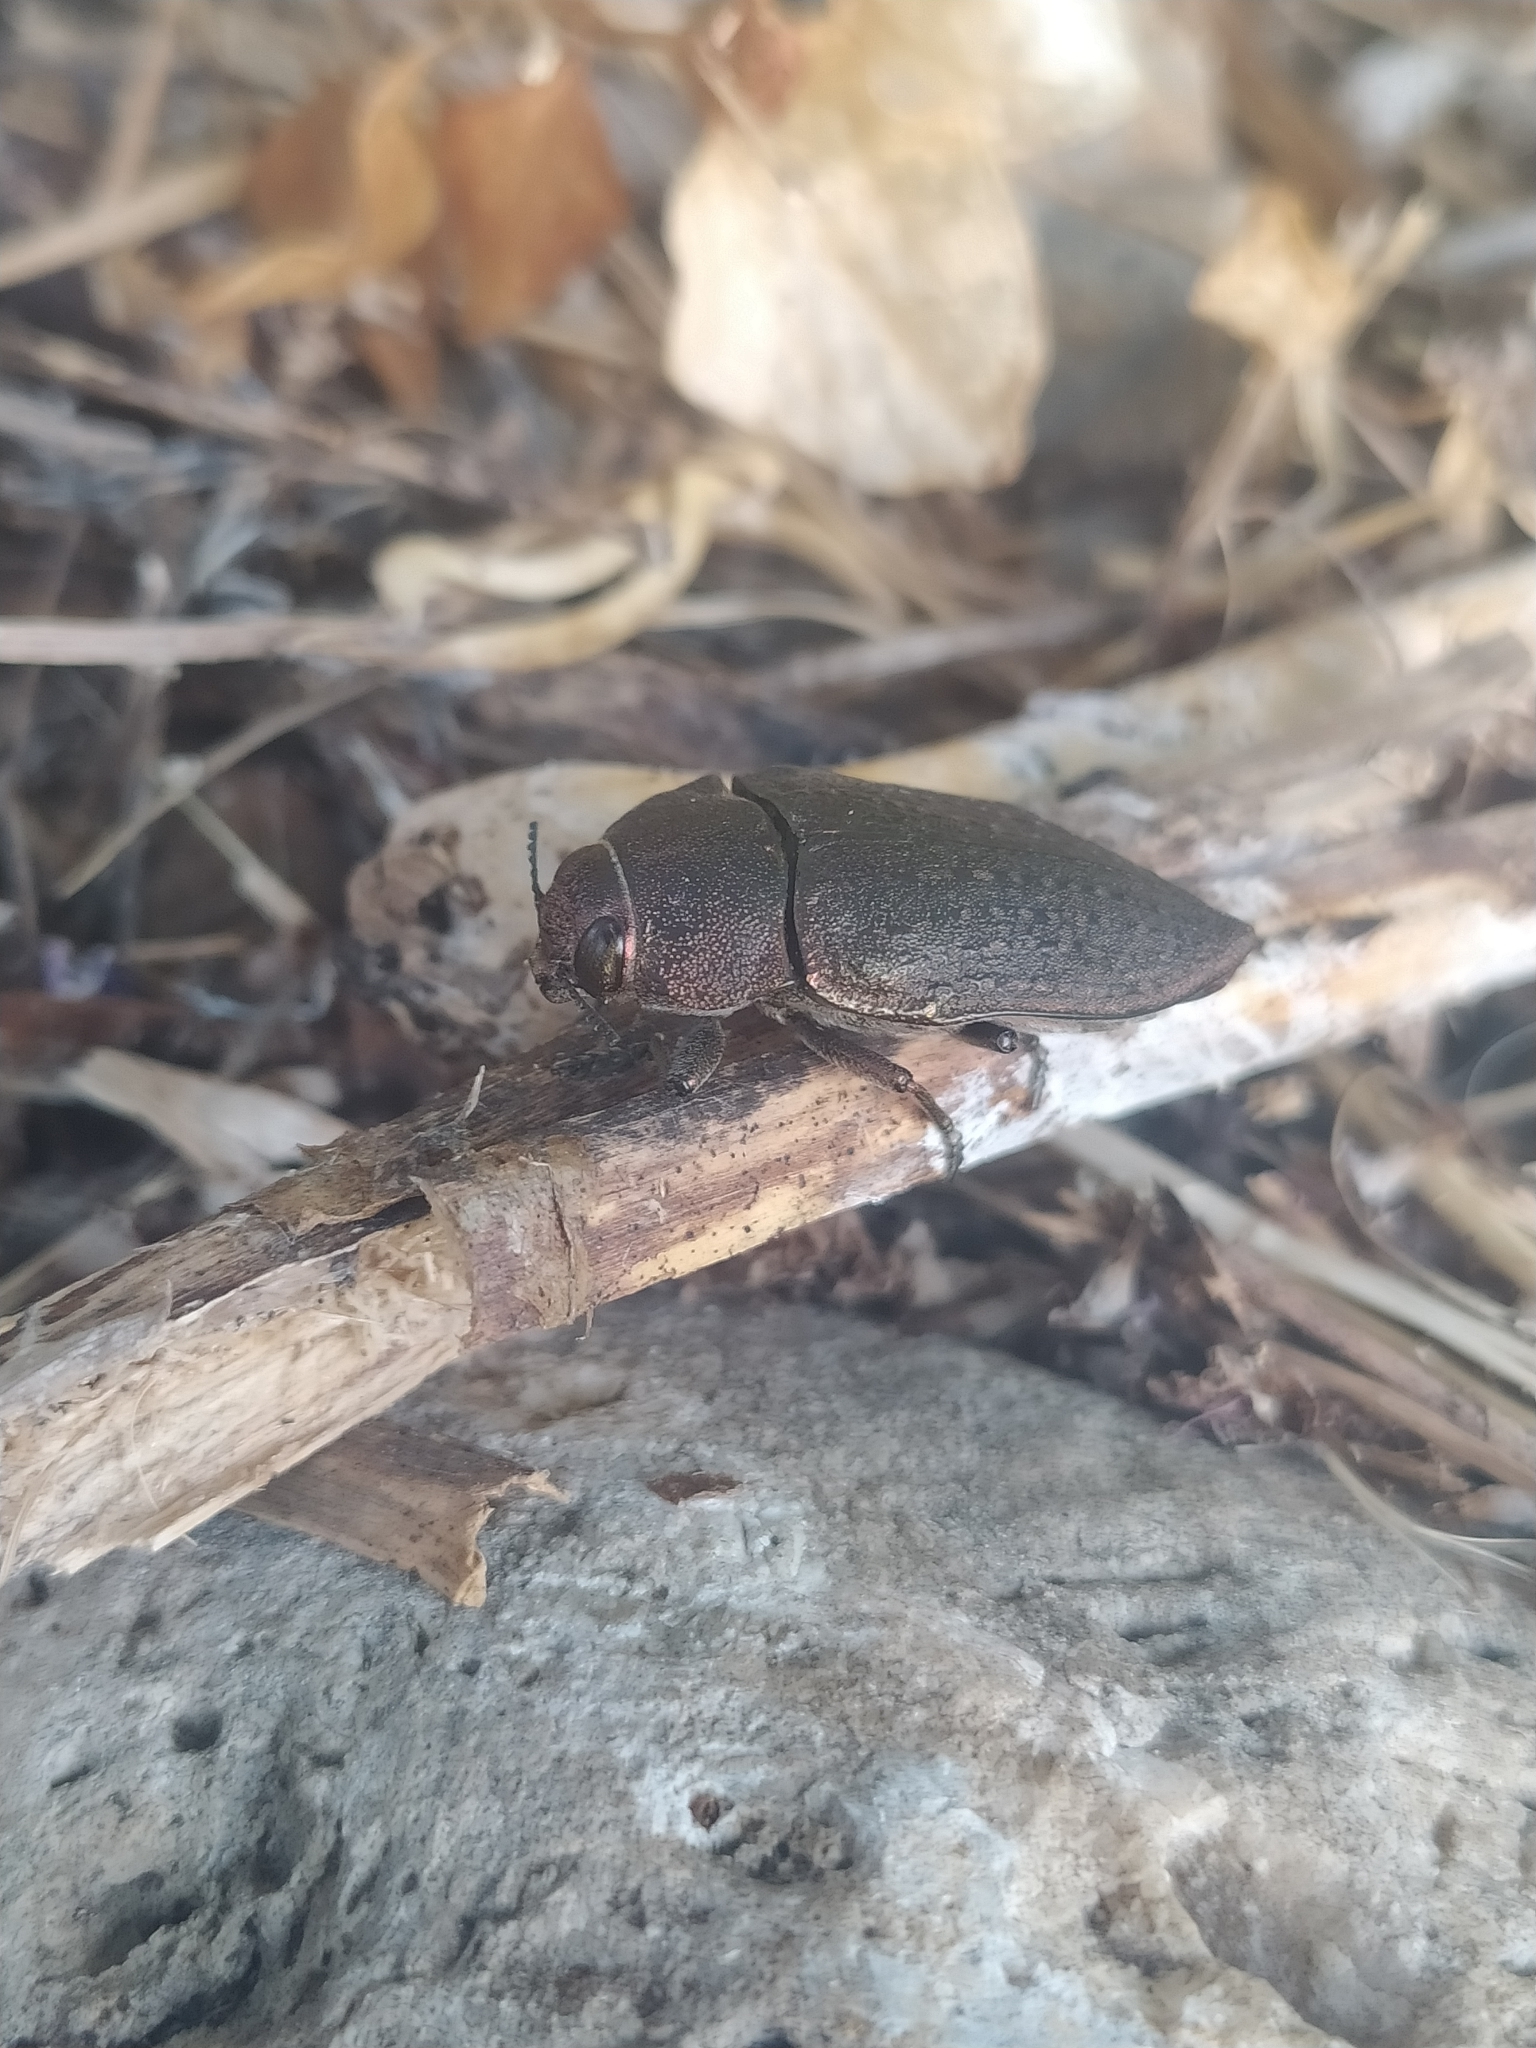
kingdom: Animalia
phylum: Arthropoda
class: Insecta
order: Coleoptera
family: Buprestidae
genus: Perotis
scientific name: Perotis lugubris
